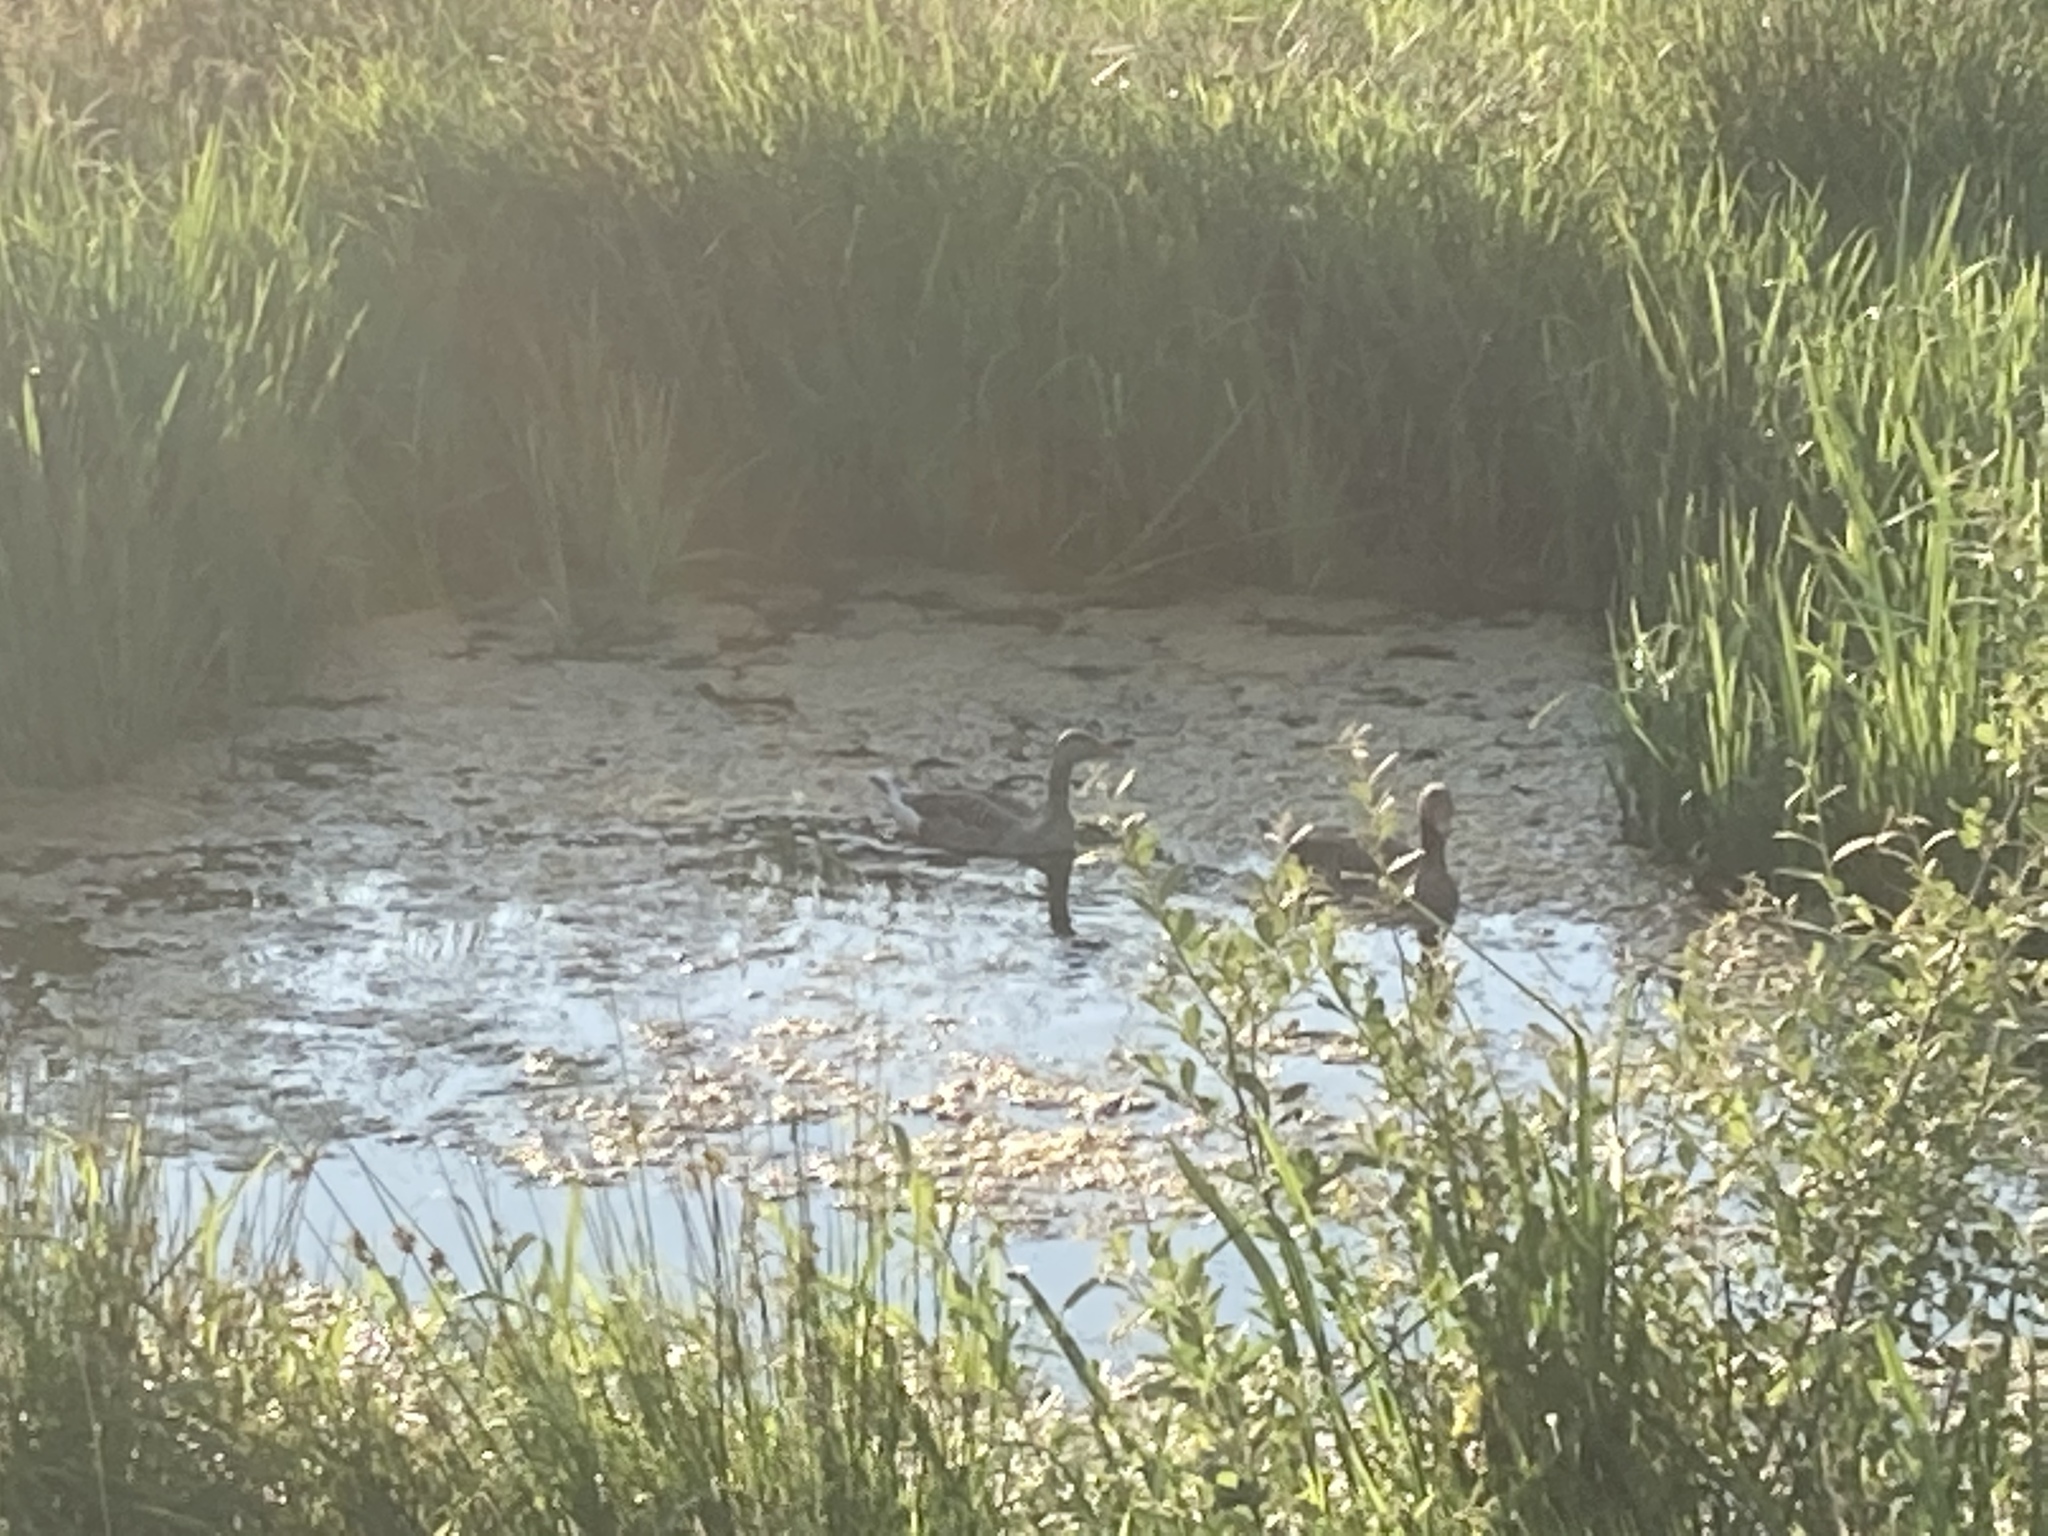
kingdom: Animalia
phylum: Chordata
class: Aves
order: Anseriformes
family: Anatidae
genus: Anser
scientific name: Anser anser
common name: Greylag goose
